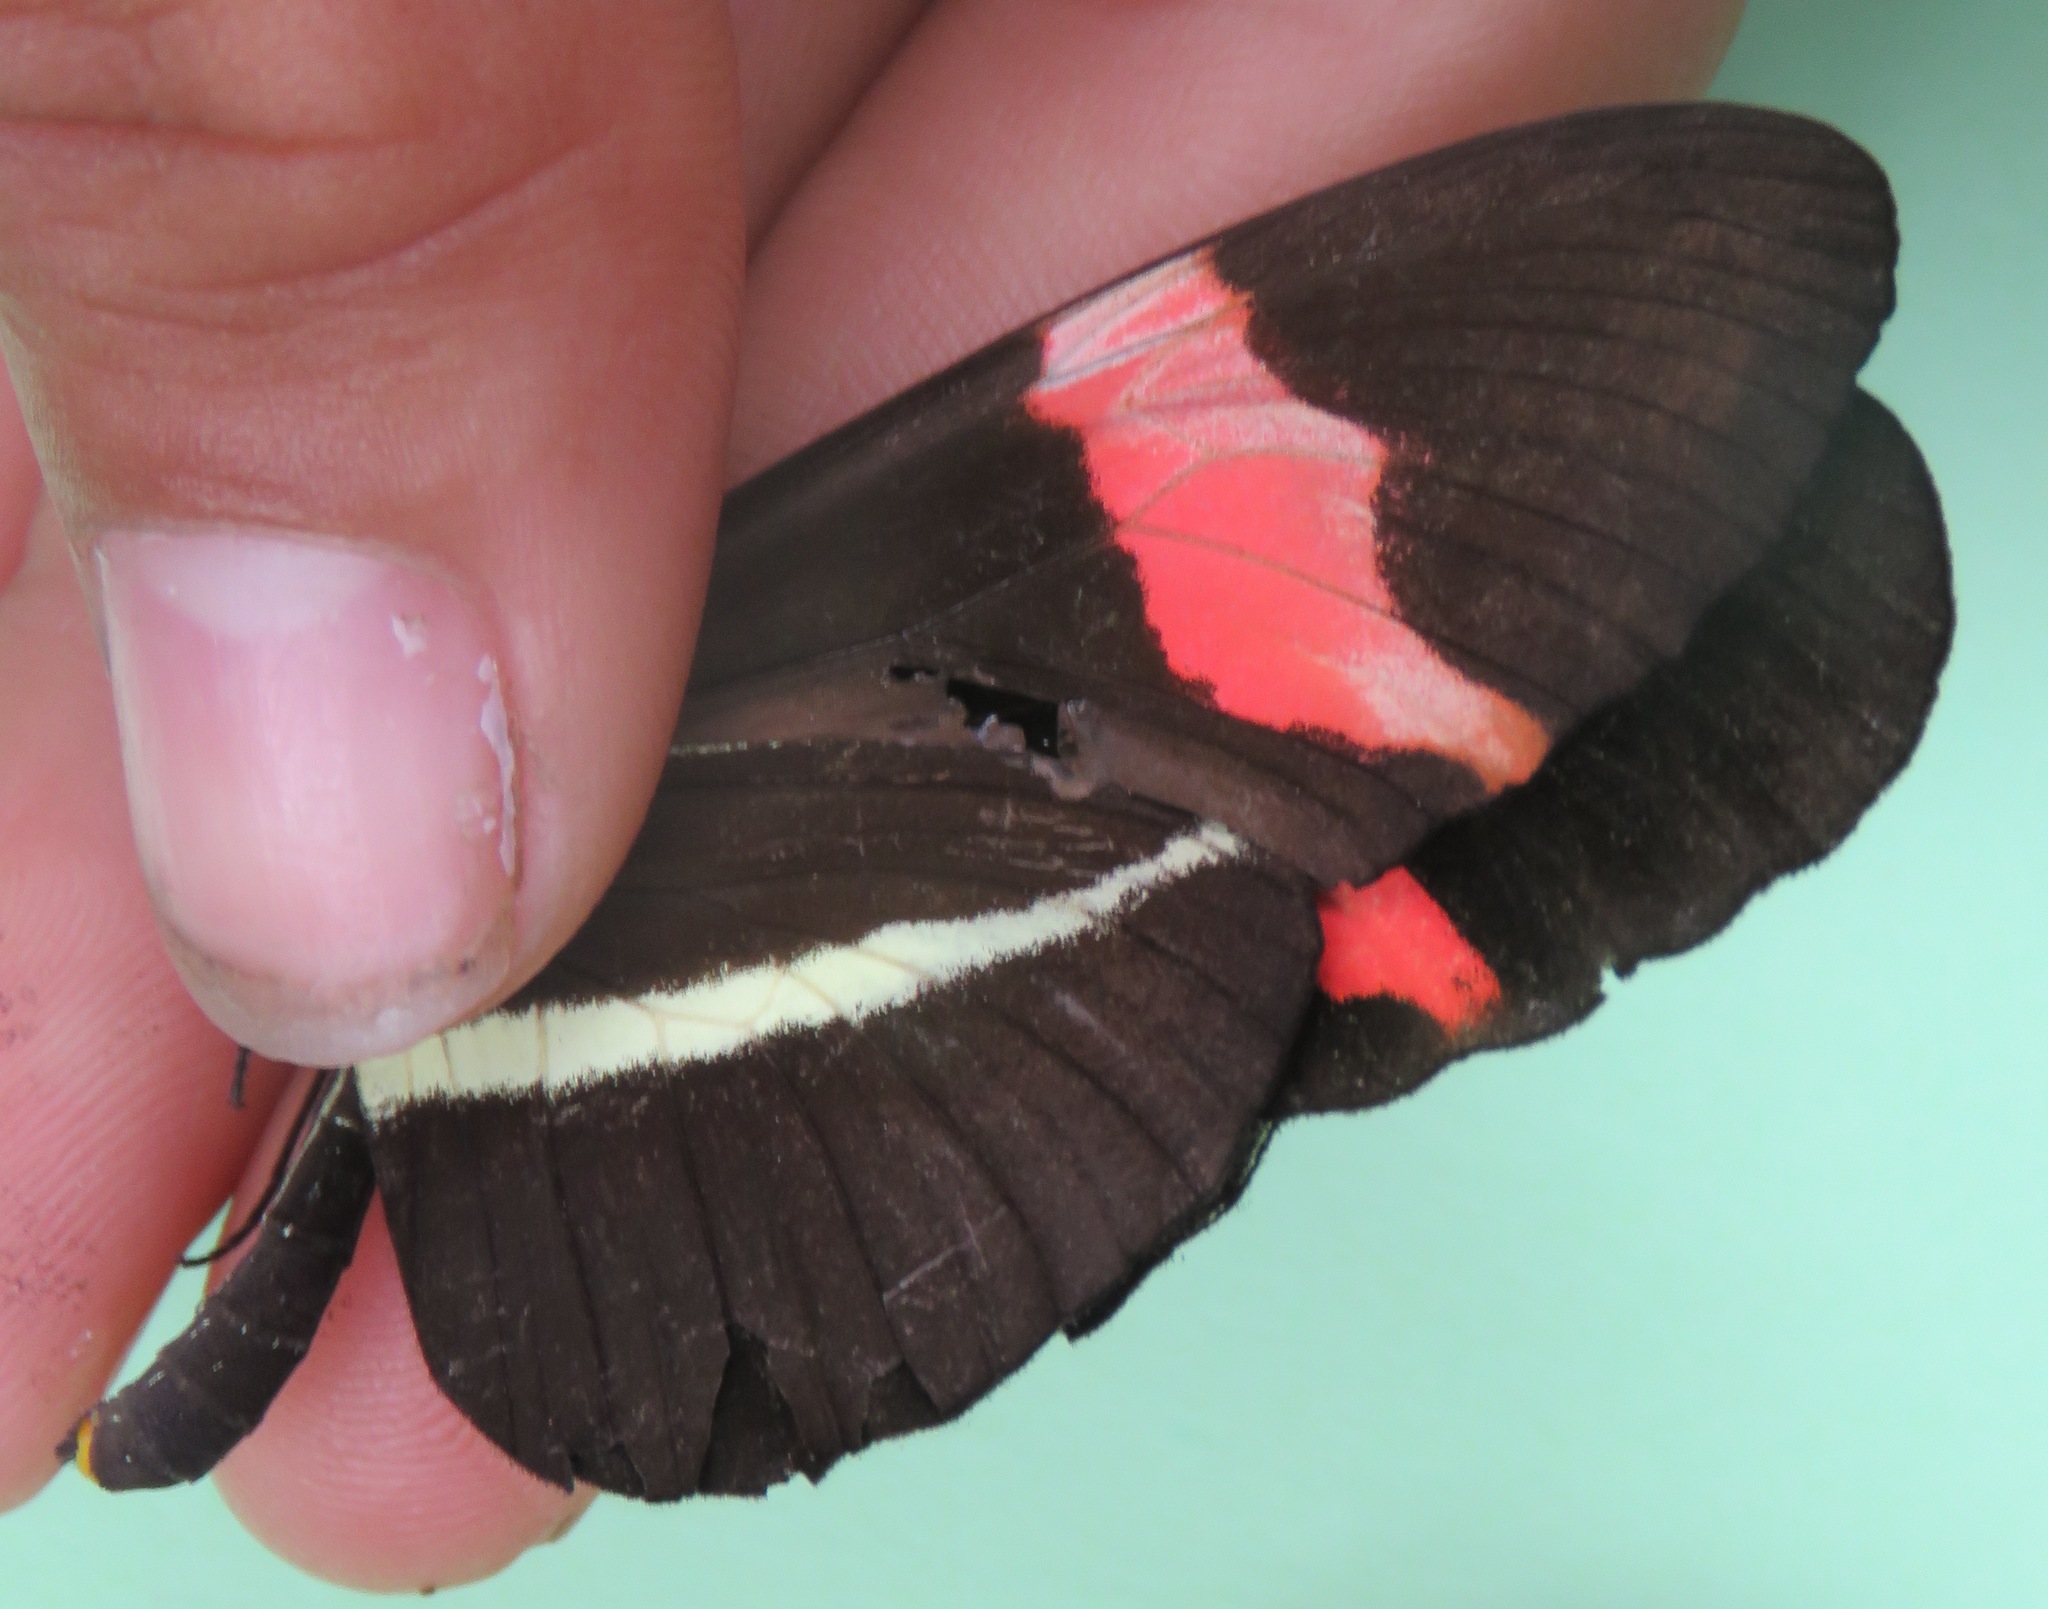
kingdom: Animalia
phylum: Arthropoda
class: Insecta
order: Lepidoptera
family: Nymphalidae
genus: Tirumala
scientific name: Tirumala petiverana
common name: Blue monarch
